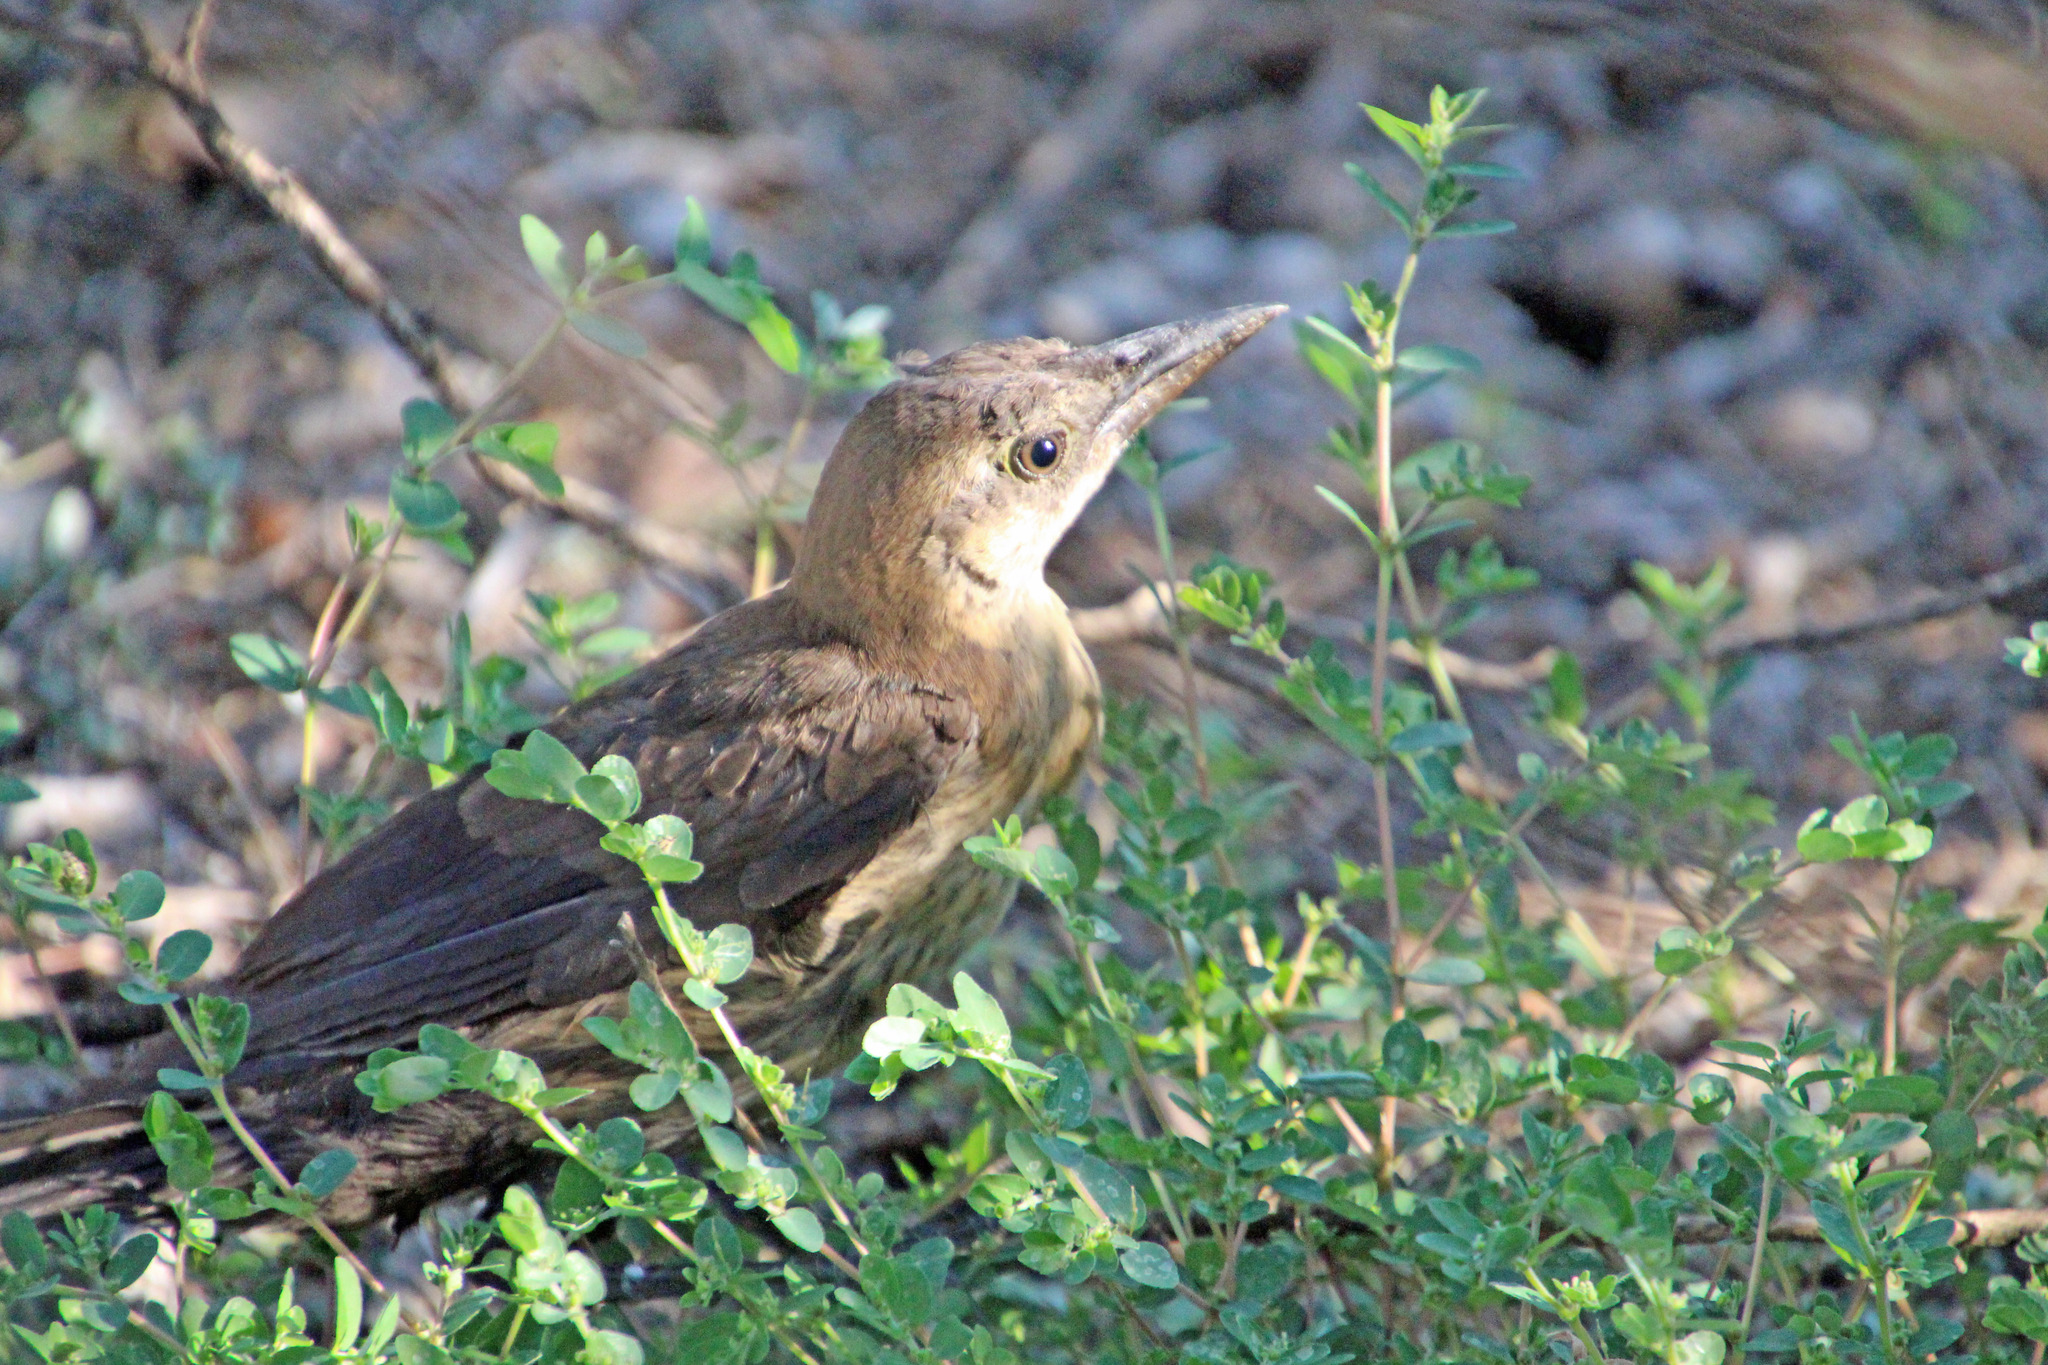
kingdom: Animalia
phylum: Chordata
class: Aves
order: Passeriformes
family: Icteridae
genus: Quiscalus
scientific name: Quiscalus mexicanus
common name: Great-tailed grackle
